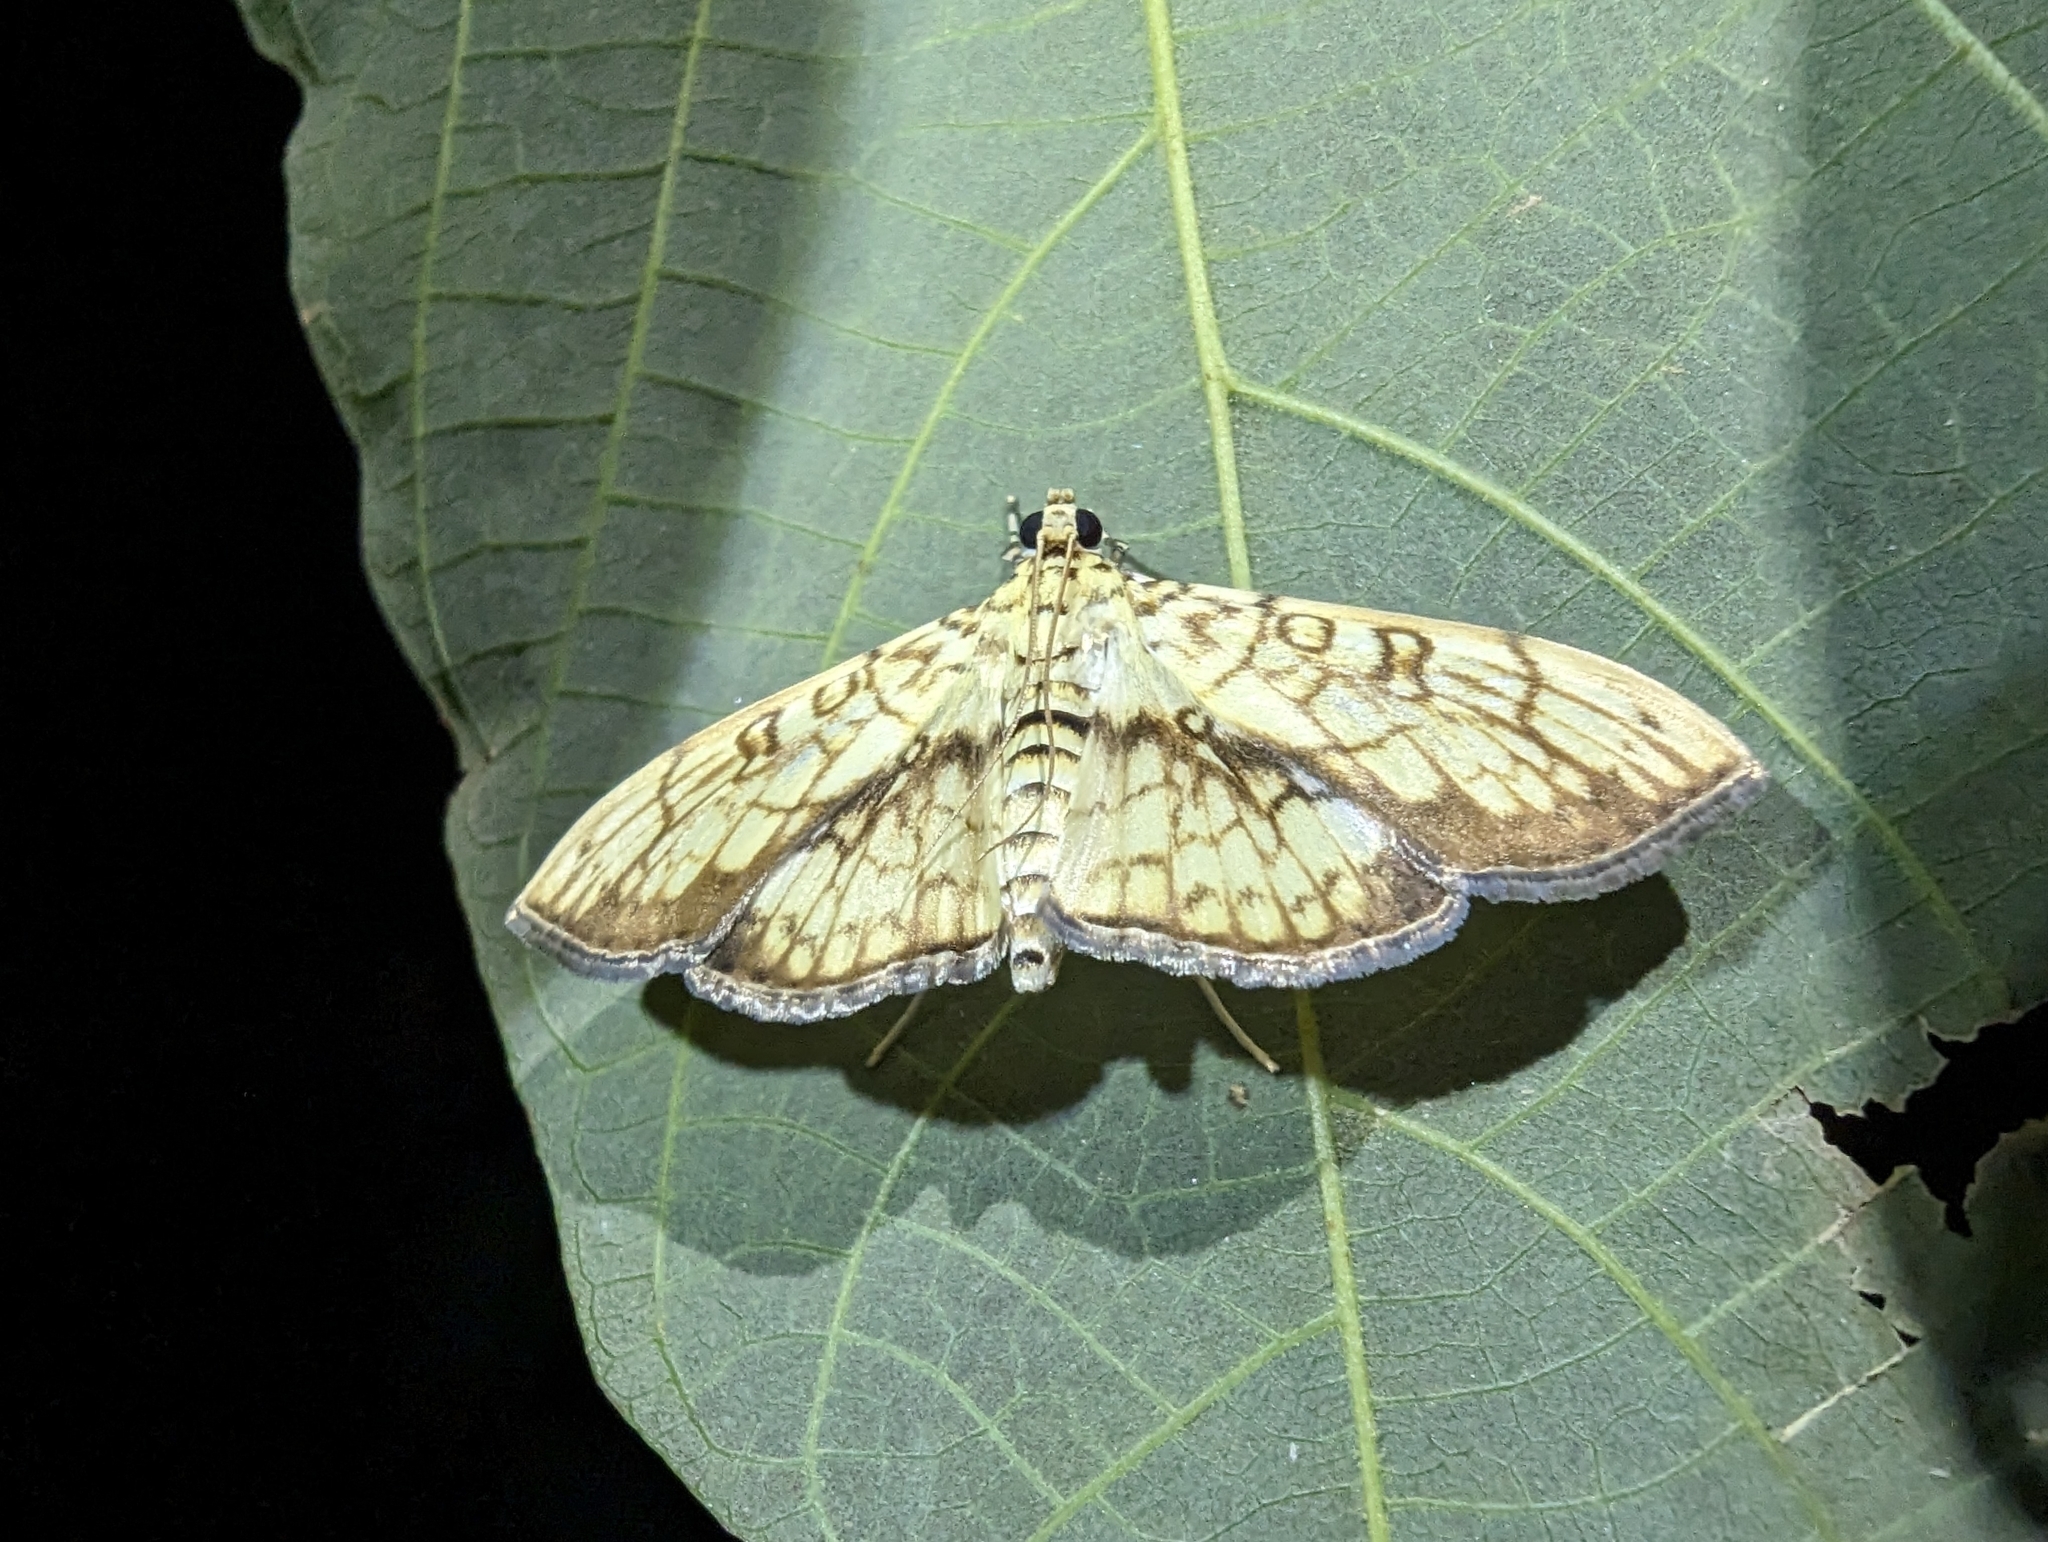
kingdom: Animalia
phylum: Arthropoda
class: Insecta
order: Lepidoptera
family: Crambidae
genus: Haritalodes
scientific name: Haritalodes derogata
